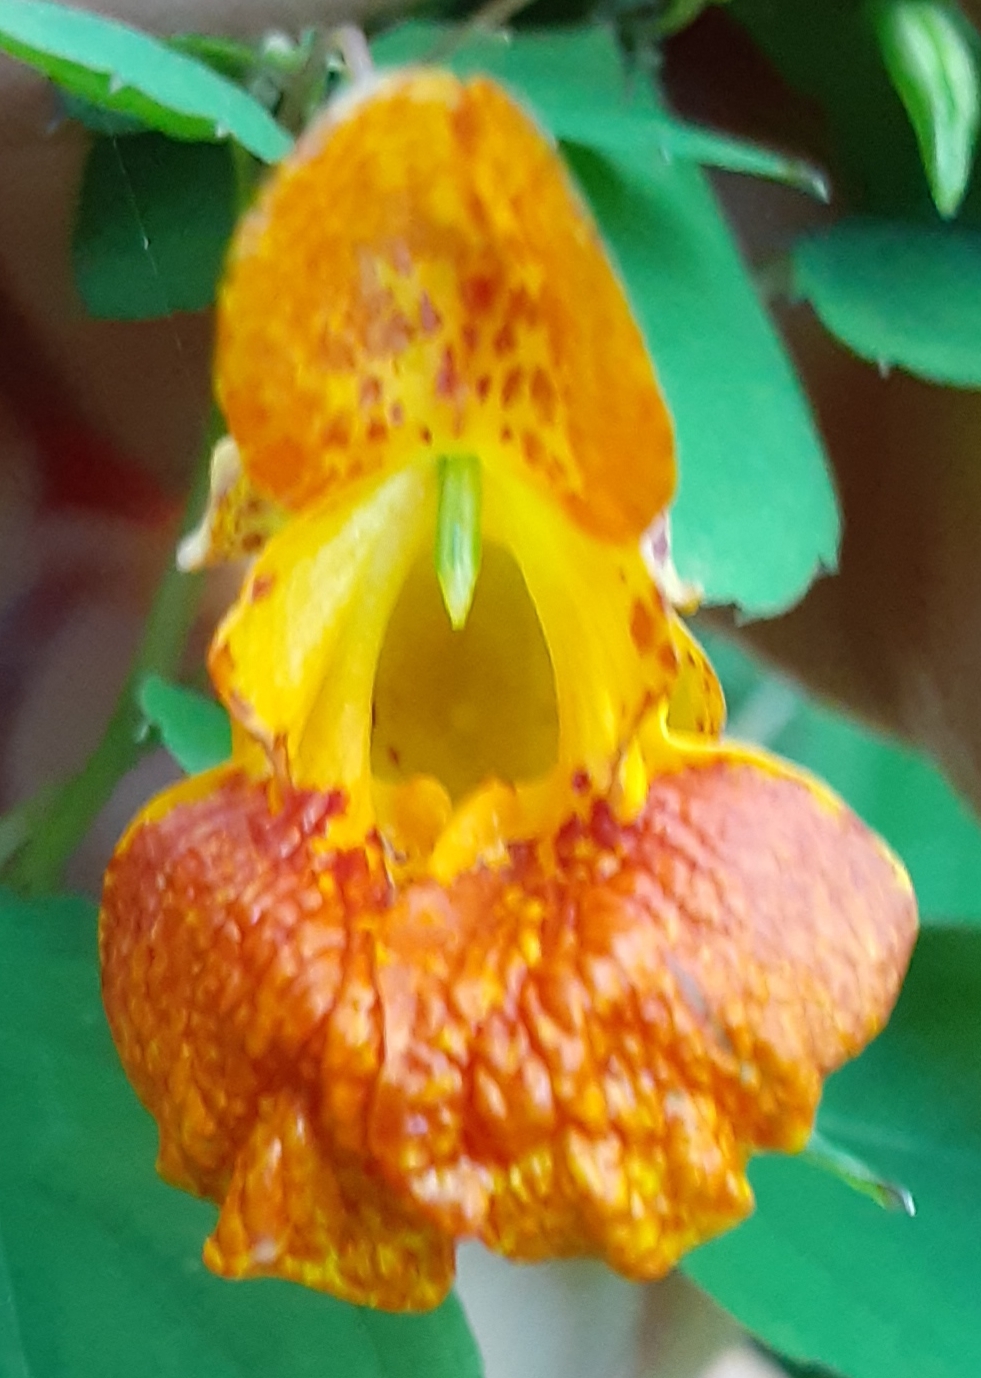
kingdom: Plantae
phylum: Tracheophyta
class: Magnoliopsida
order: Ericales
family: Balsaminaceae
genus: Impatiens
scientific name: Impatiens capensis
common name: Orange balsam
